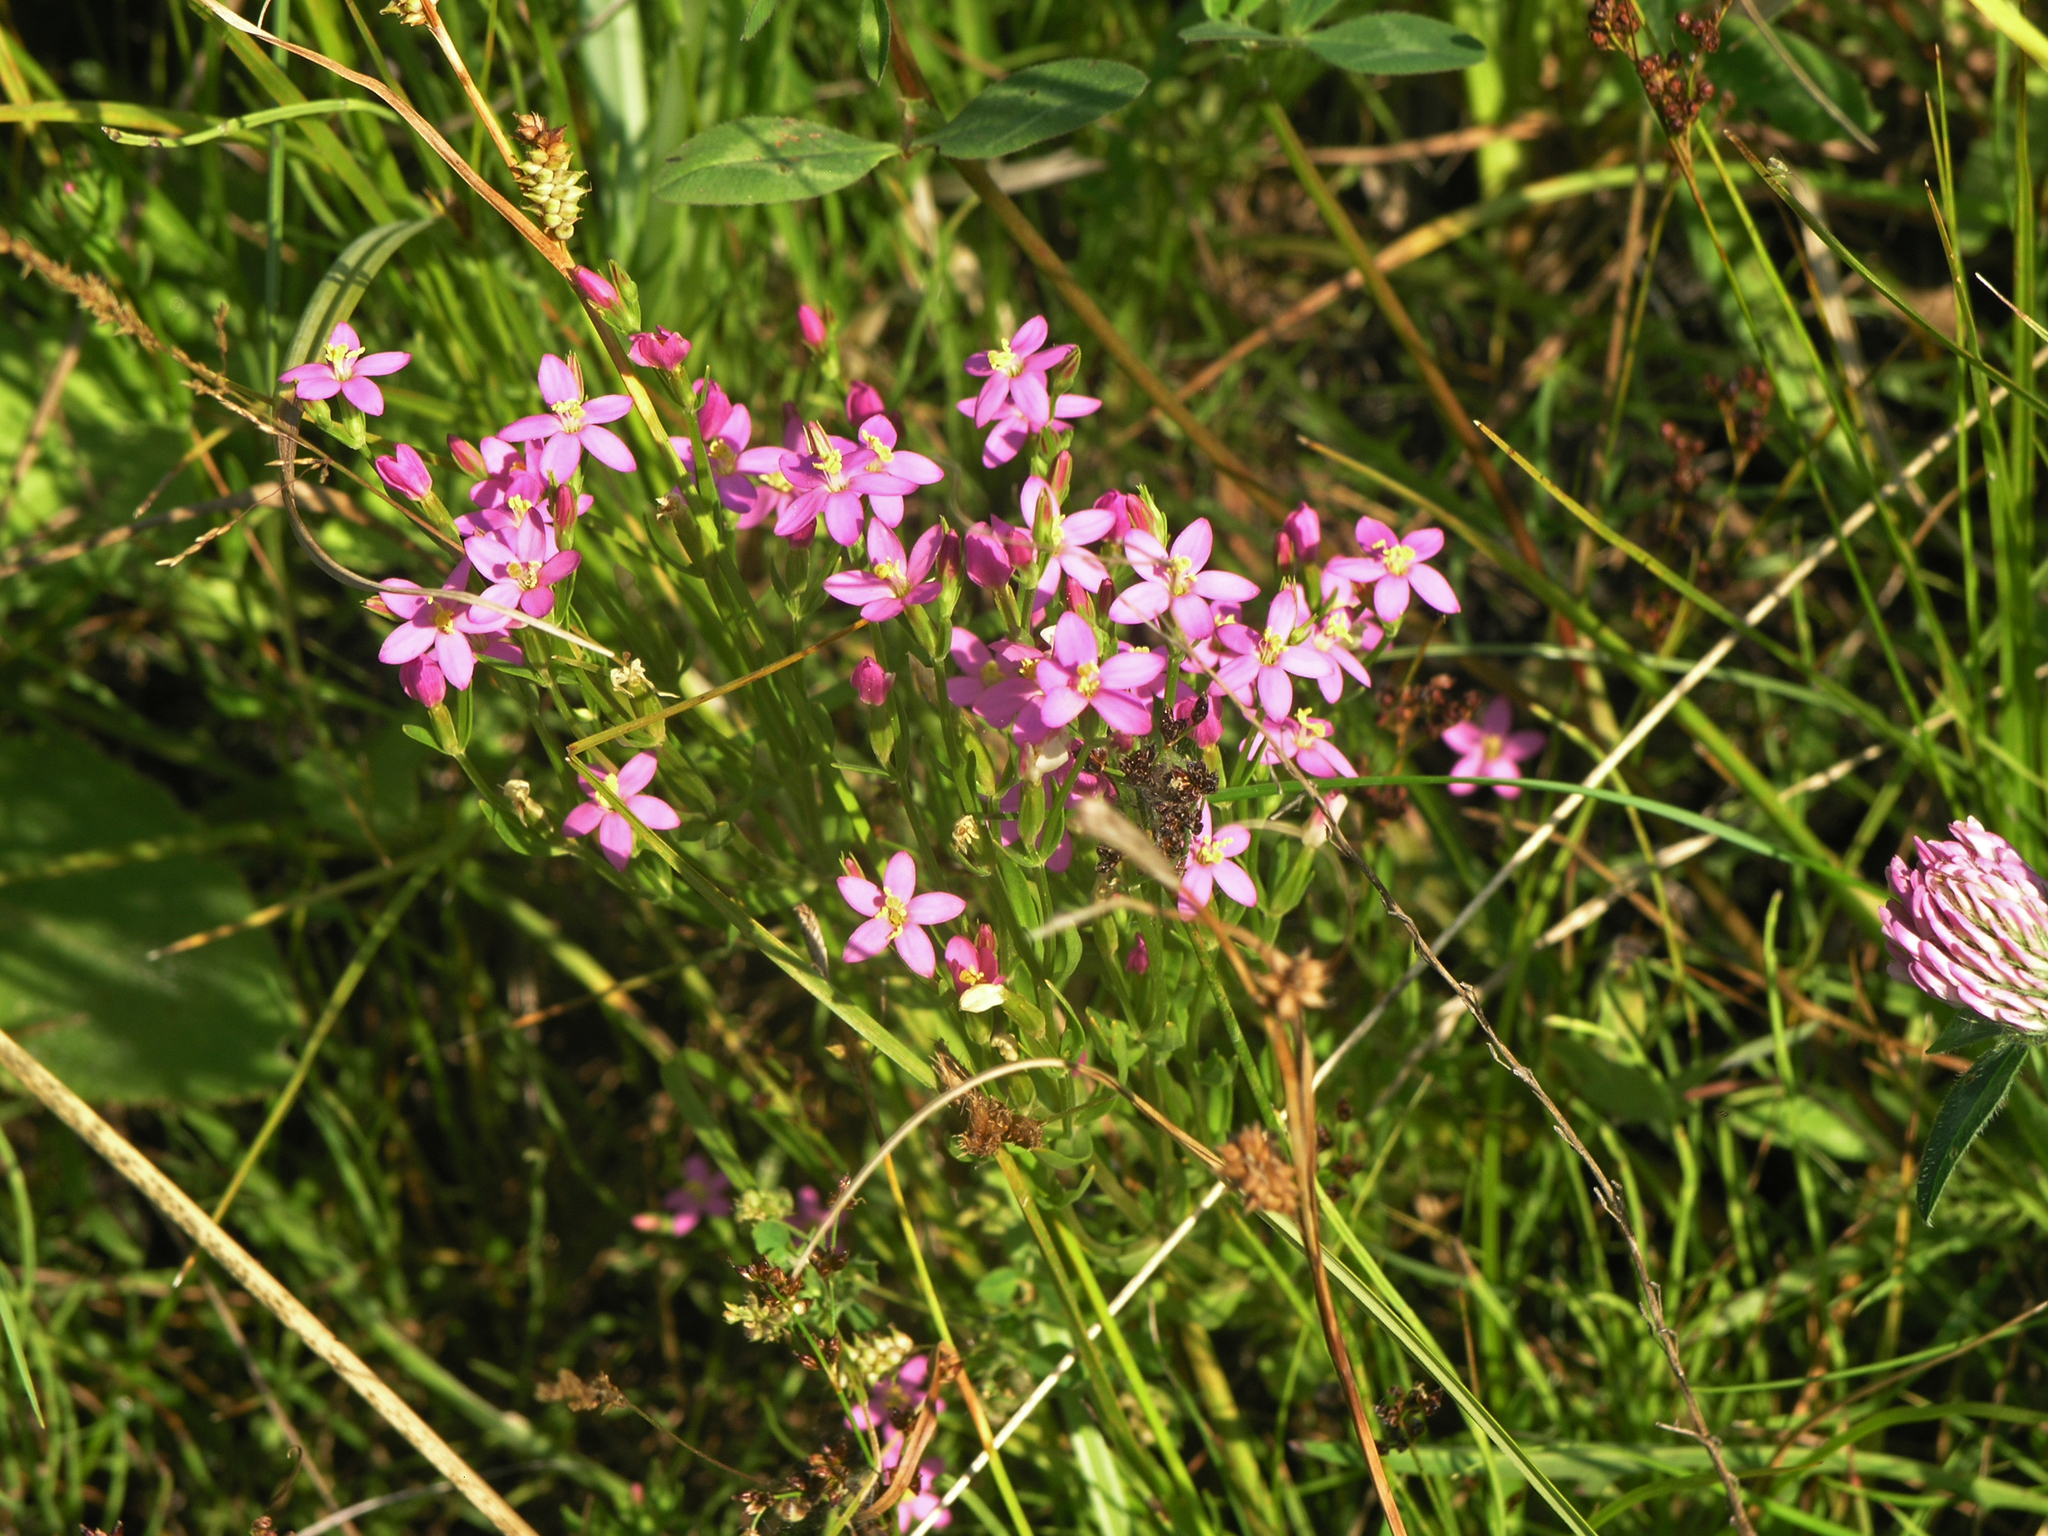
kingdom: Plantae
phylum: Tracheophyta
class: Magnoliopsida
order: Gentianales
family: Gentianaceae
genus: Centaurium
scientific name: Centaurium pulchellum
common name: Lesser centaury
